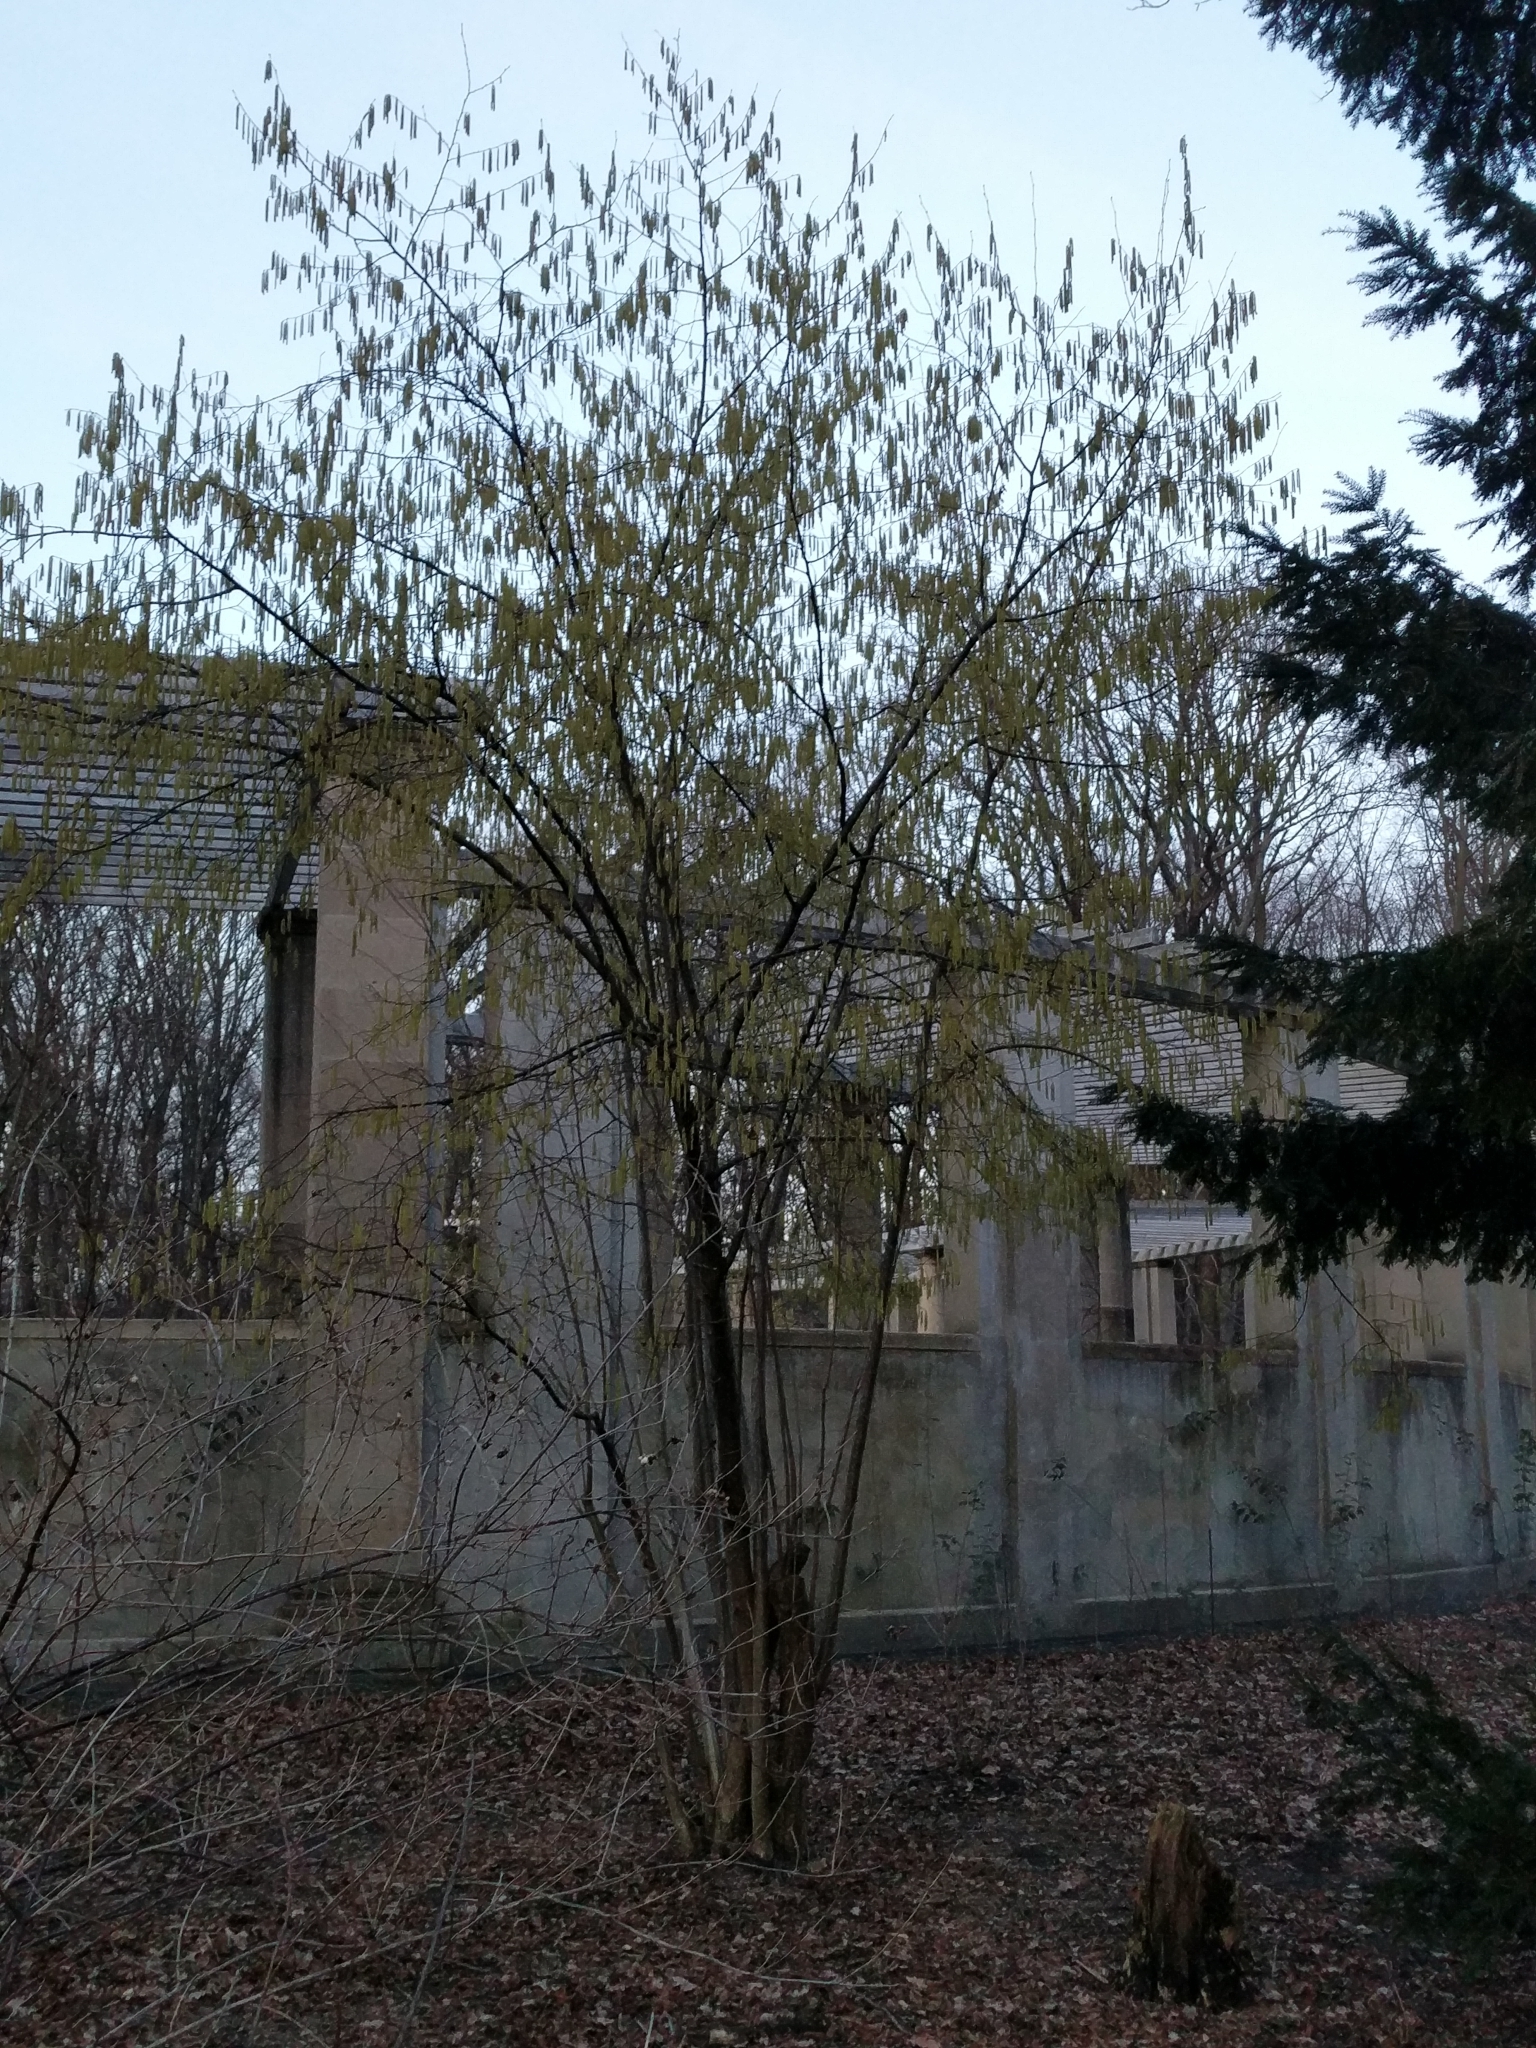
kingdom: Plantae
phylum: Tracheophyta
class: Magnoliopsida
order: Fagales
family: Betulaceae
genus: Corylus
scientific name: Corylus avellana
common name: European hazel
